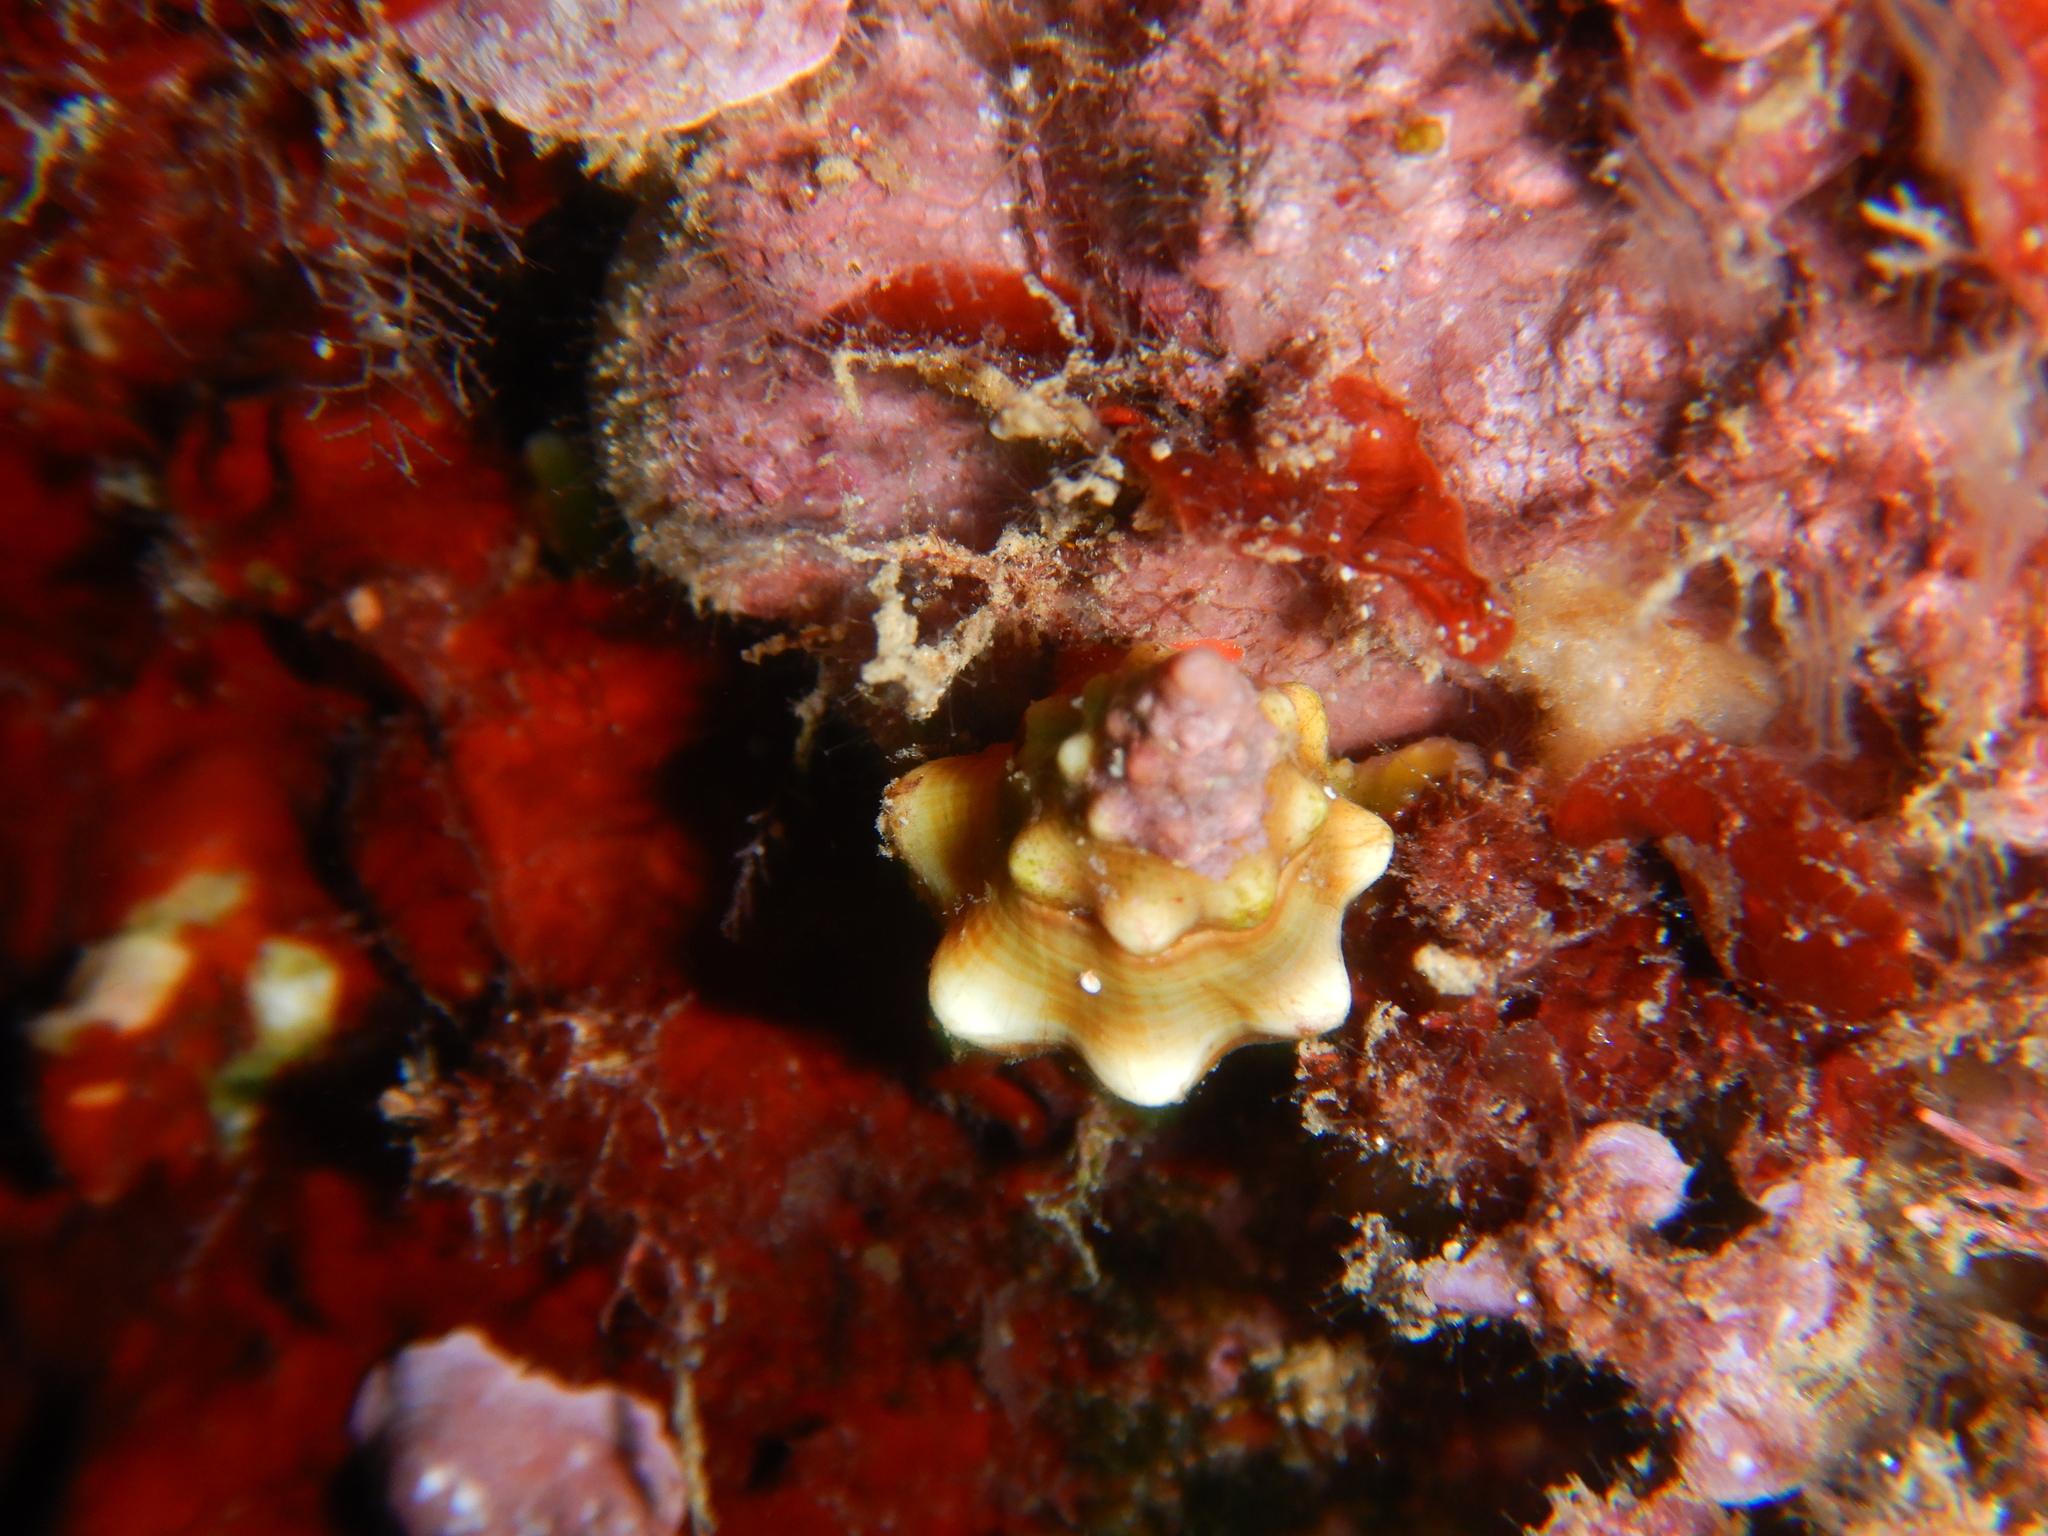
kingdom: Animalia
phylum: Mollusca
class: Gastropoda
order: Neogastropoda
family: Fasciolariidae
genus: Tarantinaea
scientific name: Tarantinaea lignaria
